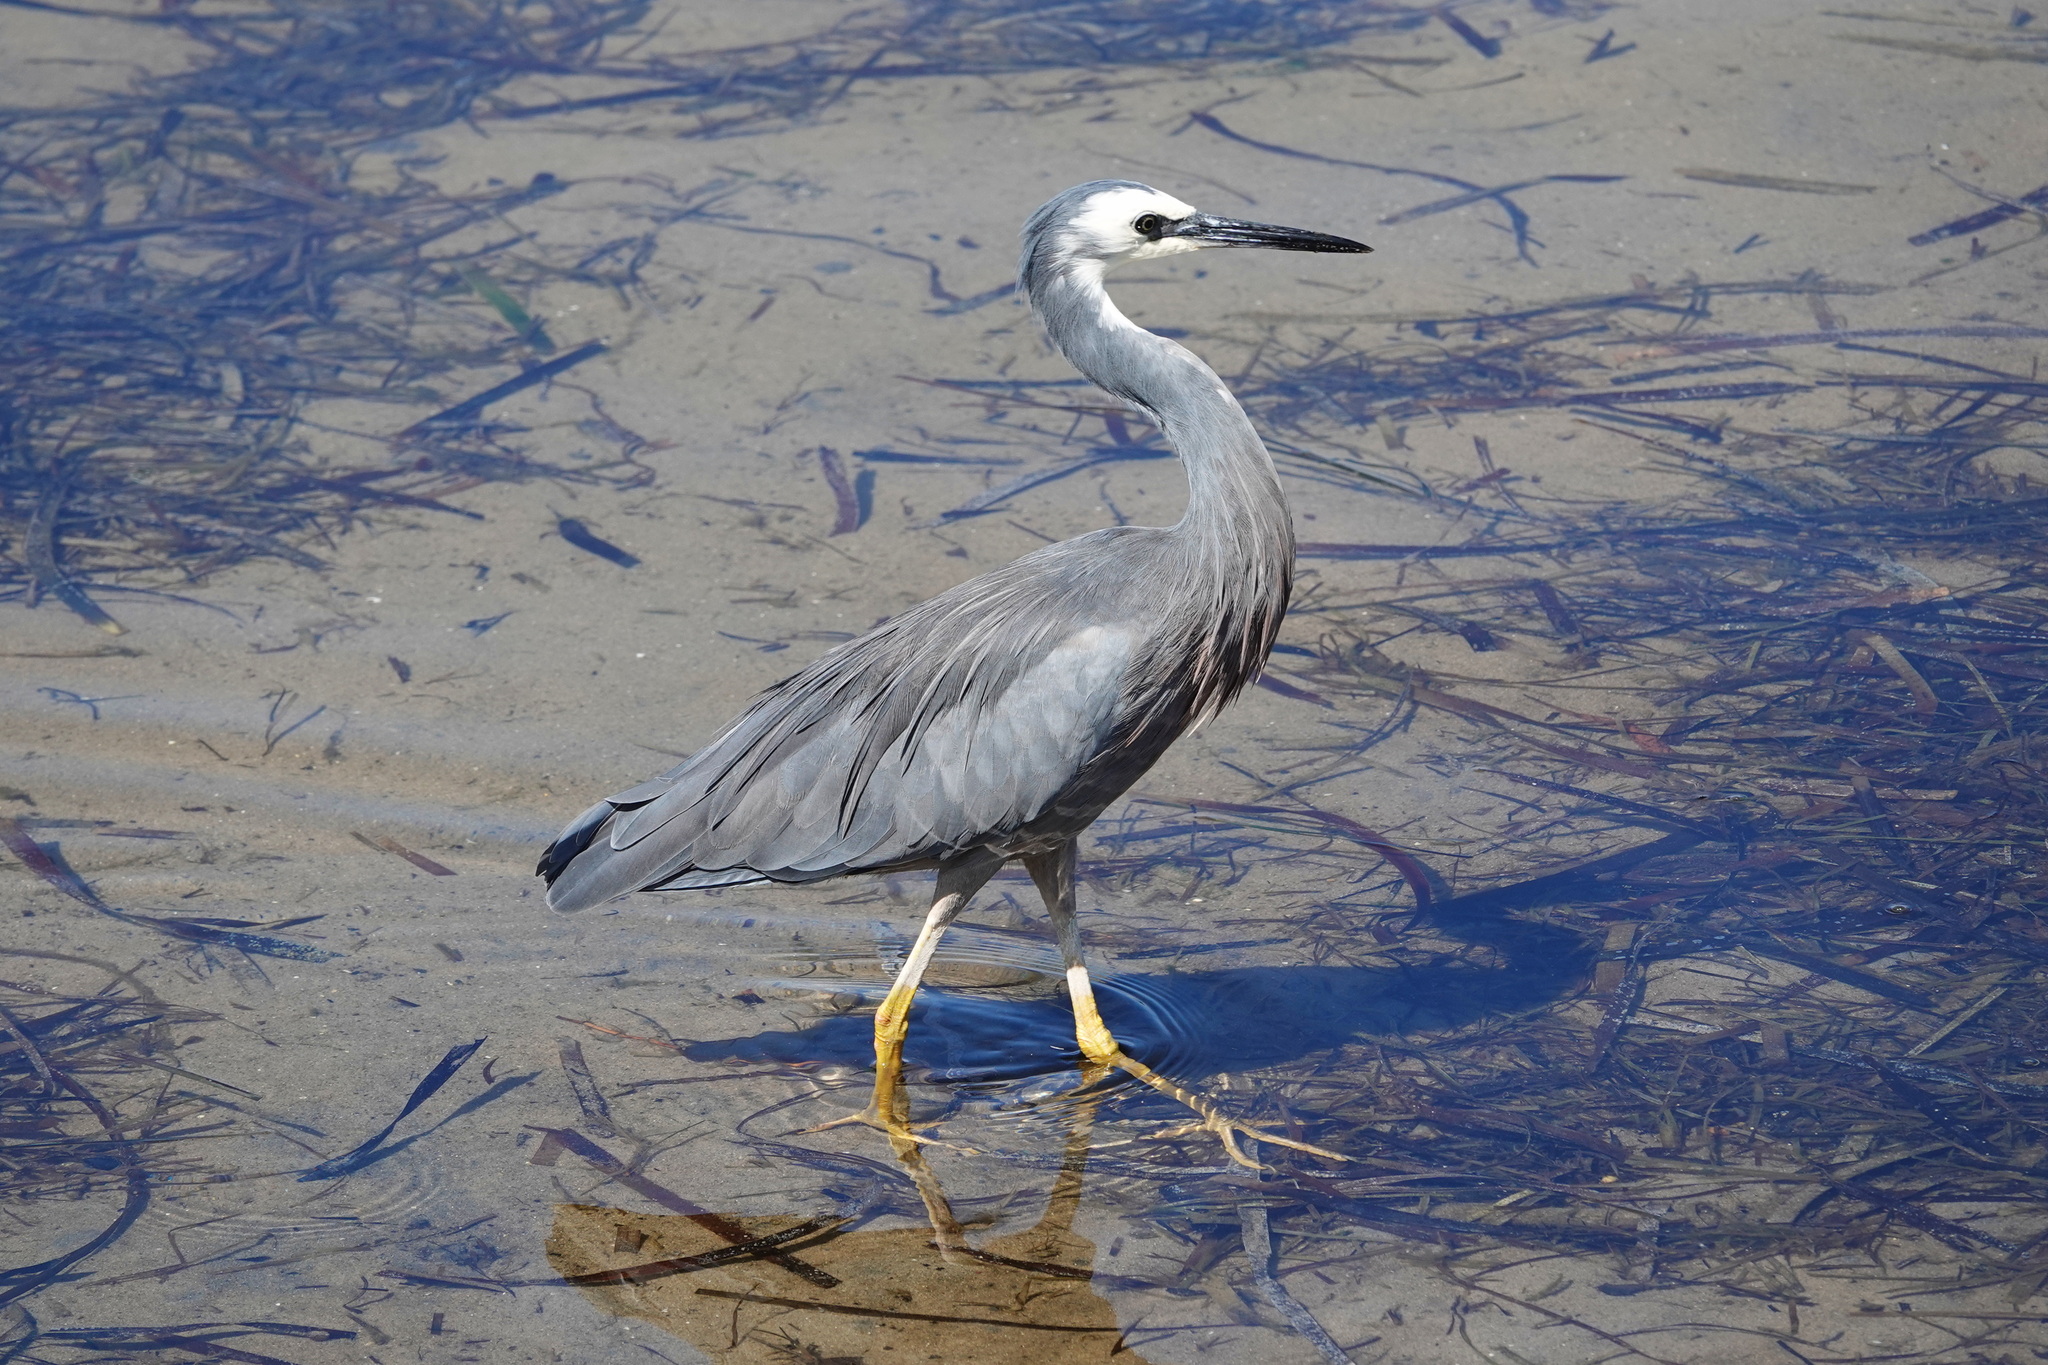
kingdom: Animalia
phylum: Chordata
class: Aves
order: Pelecaniformes
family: Ardeidae
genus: Egretta
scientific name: Egretta novaehollandiae
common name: White-faced heron
